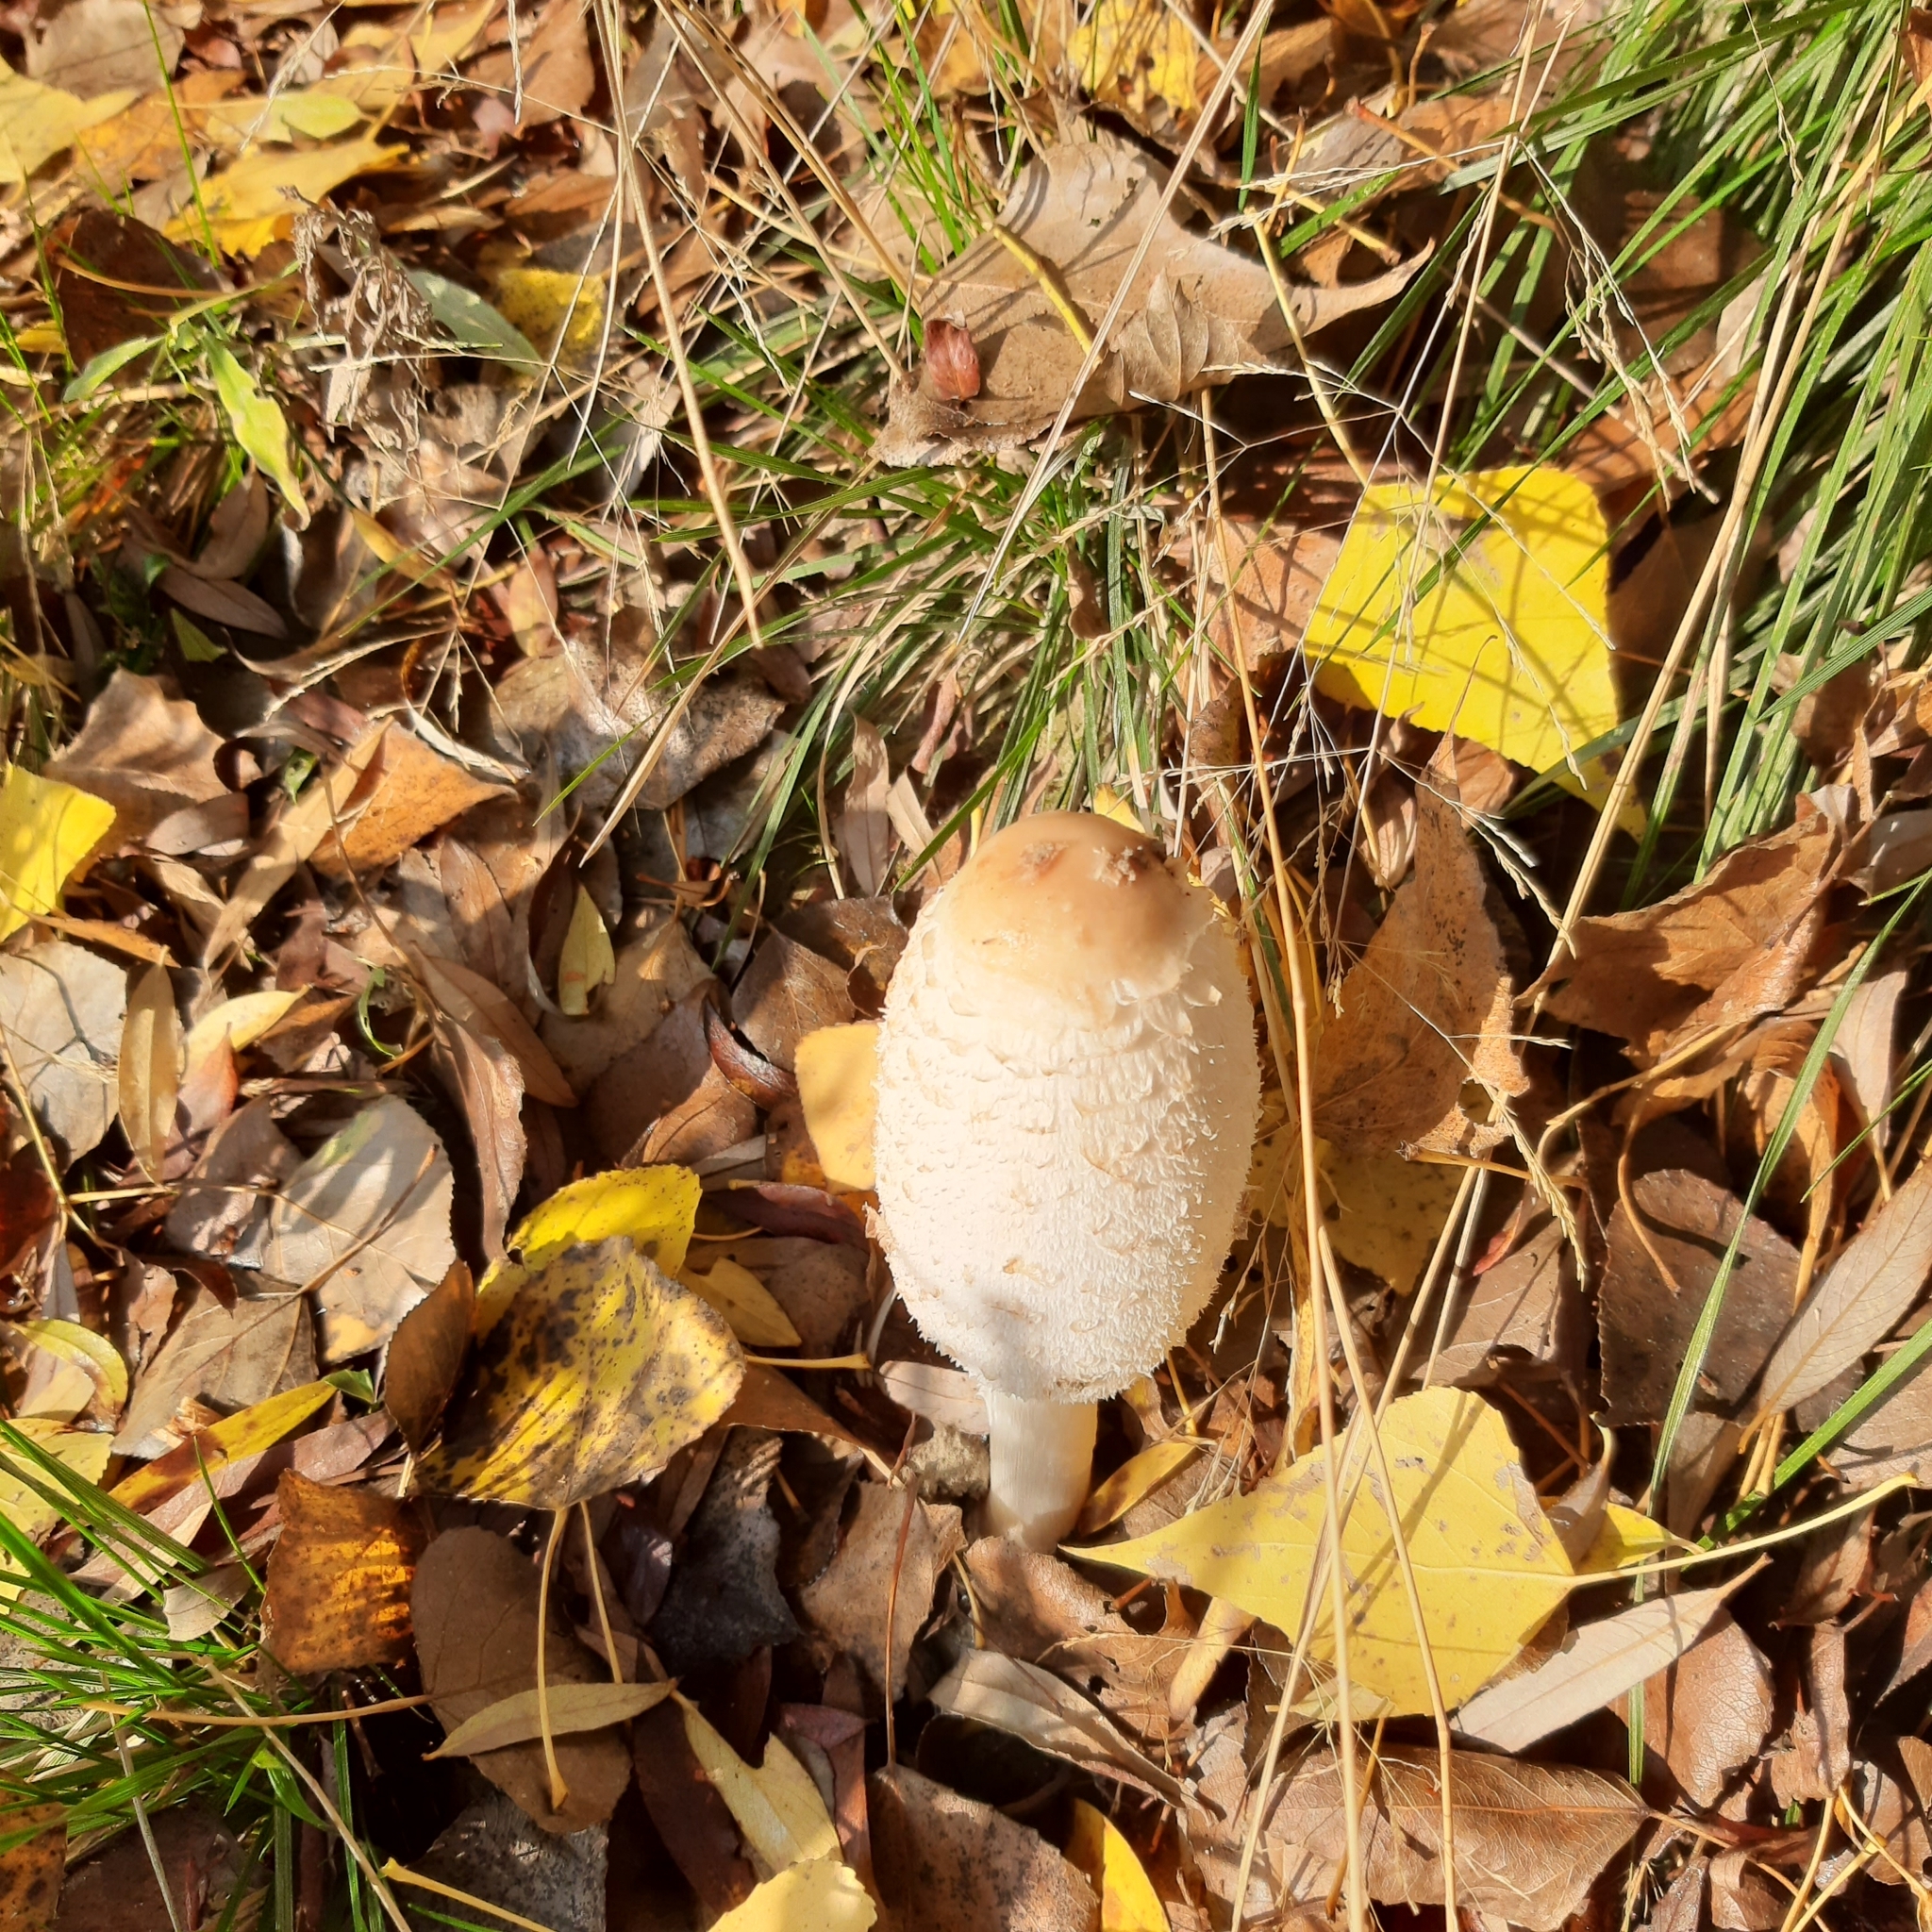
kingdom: Fungi
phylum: Basidiomycota
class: Agaricomycetes
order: Agaricales
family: Agaricaceae
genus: Coprinus
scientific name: Coprinus comatus
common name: Lawyer's wig
